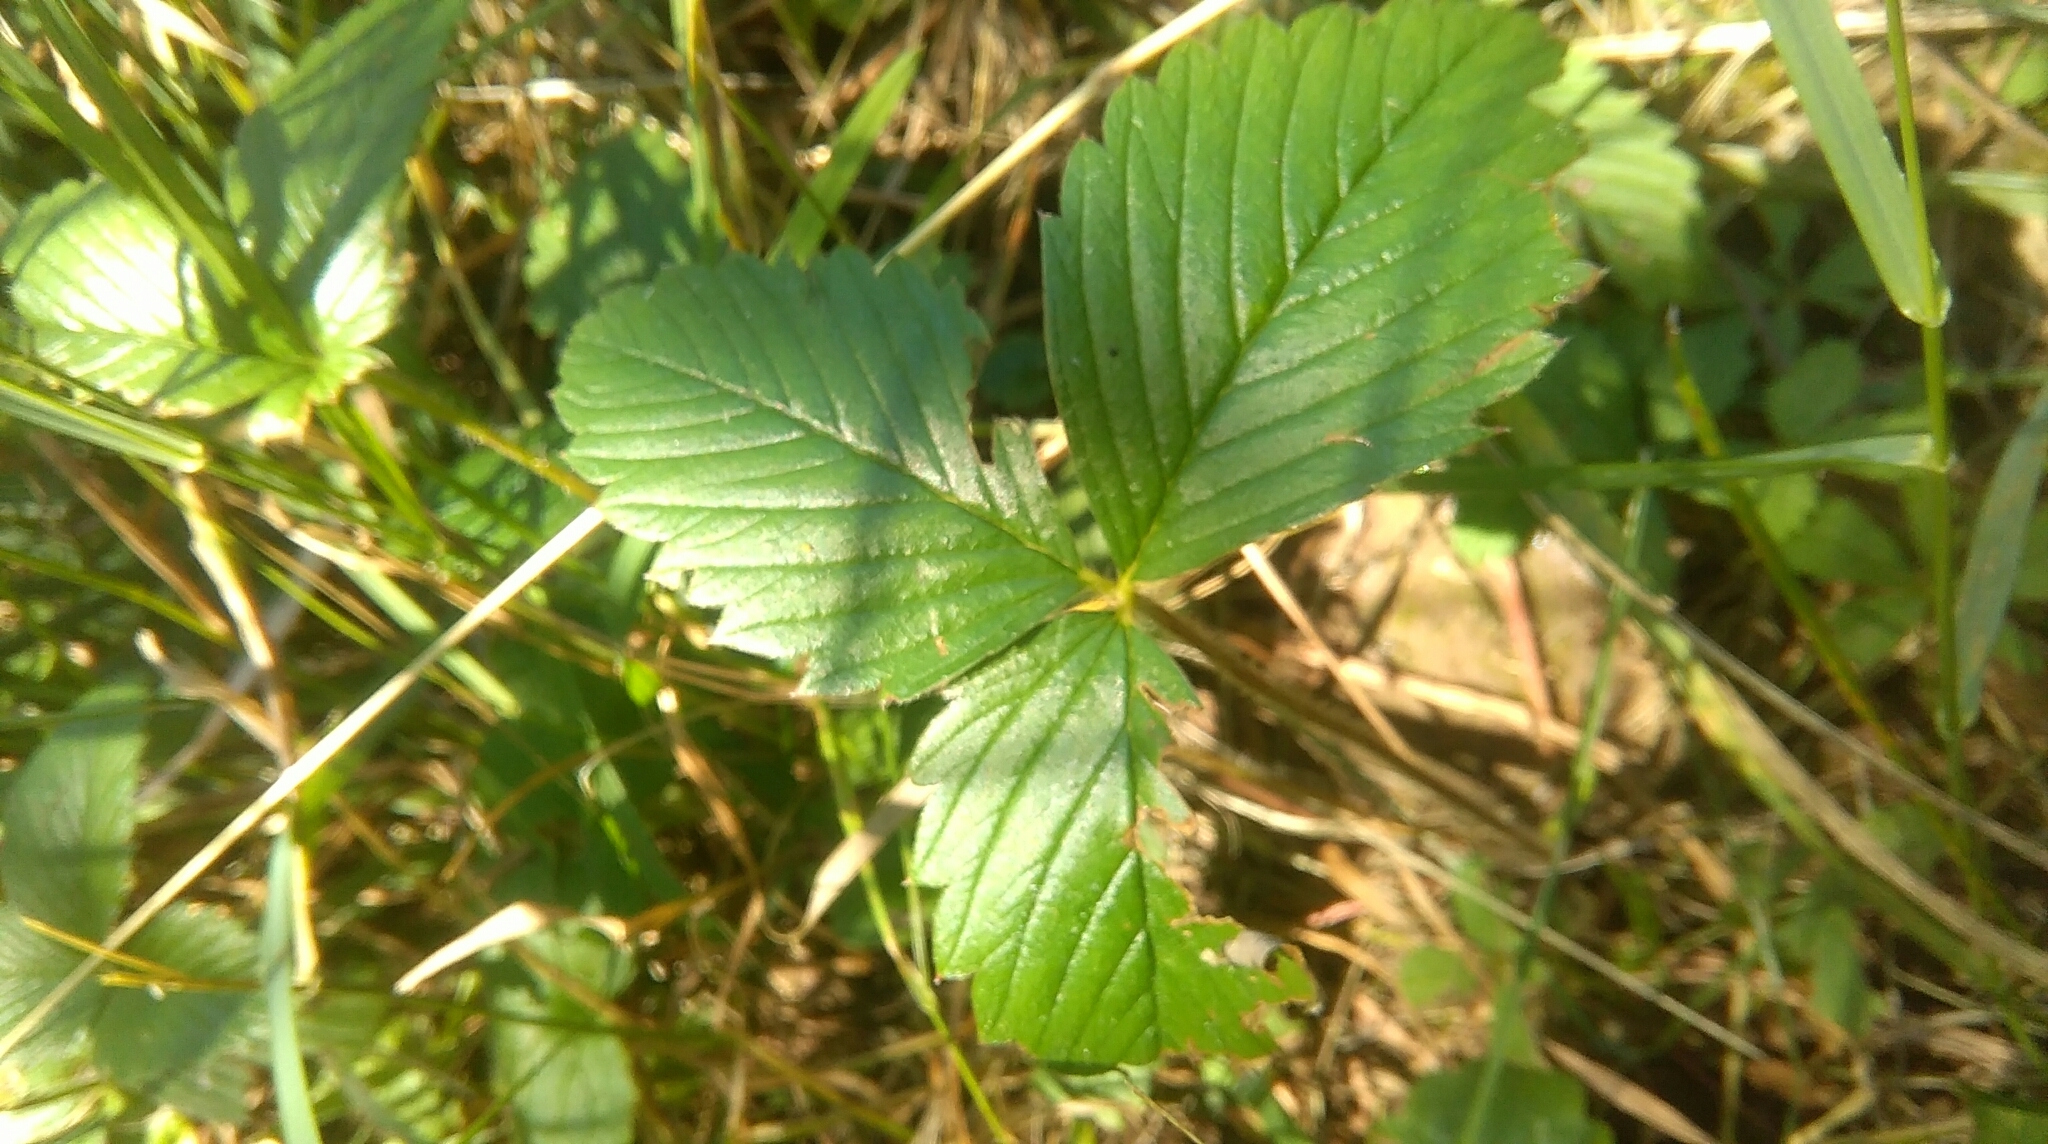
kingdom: Plantae
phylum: Tracheophyta
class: Magnoliopsida
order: Rosales
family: Rosaceae
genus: Fragaria
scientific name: Fragaria vesca
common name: Wild strawberry
